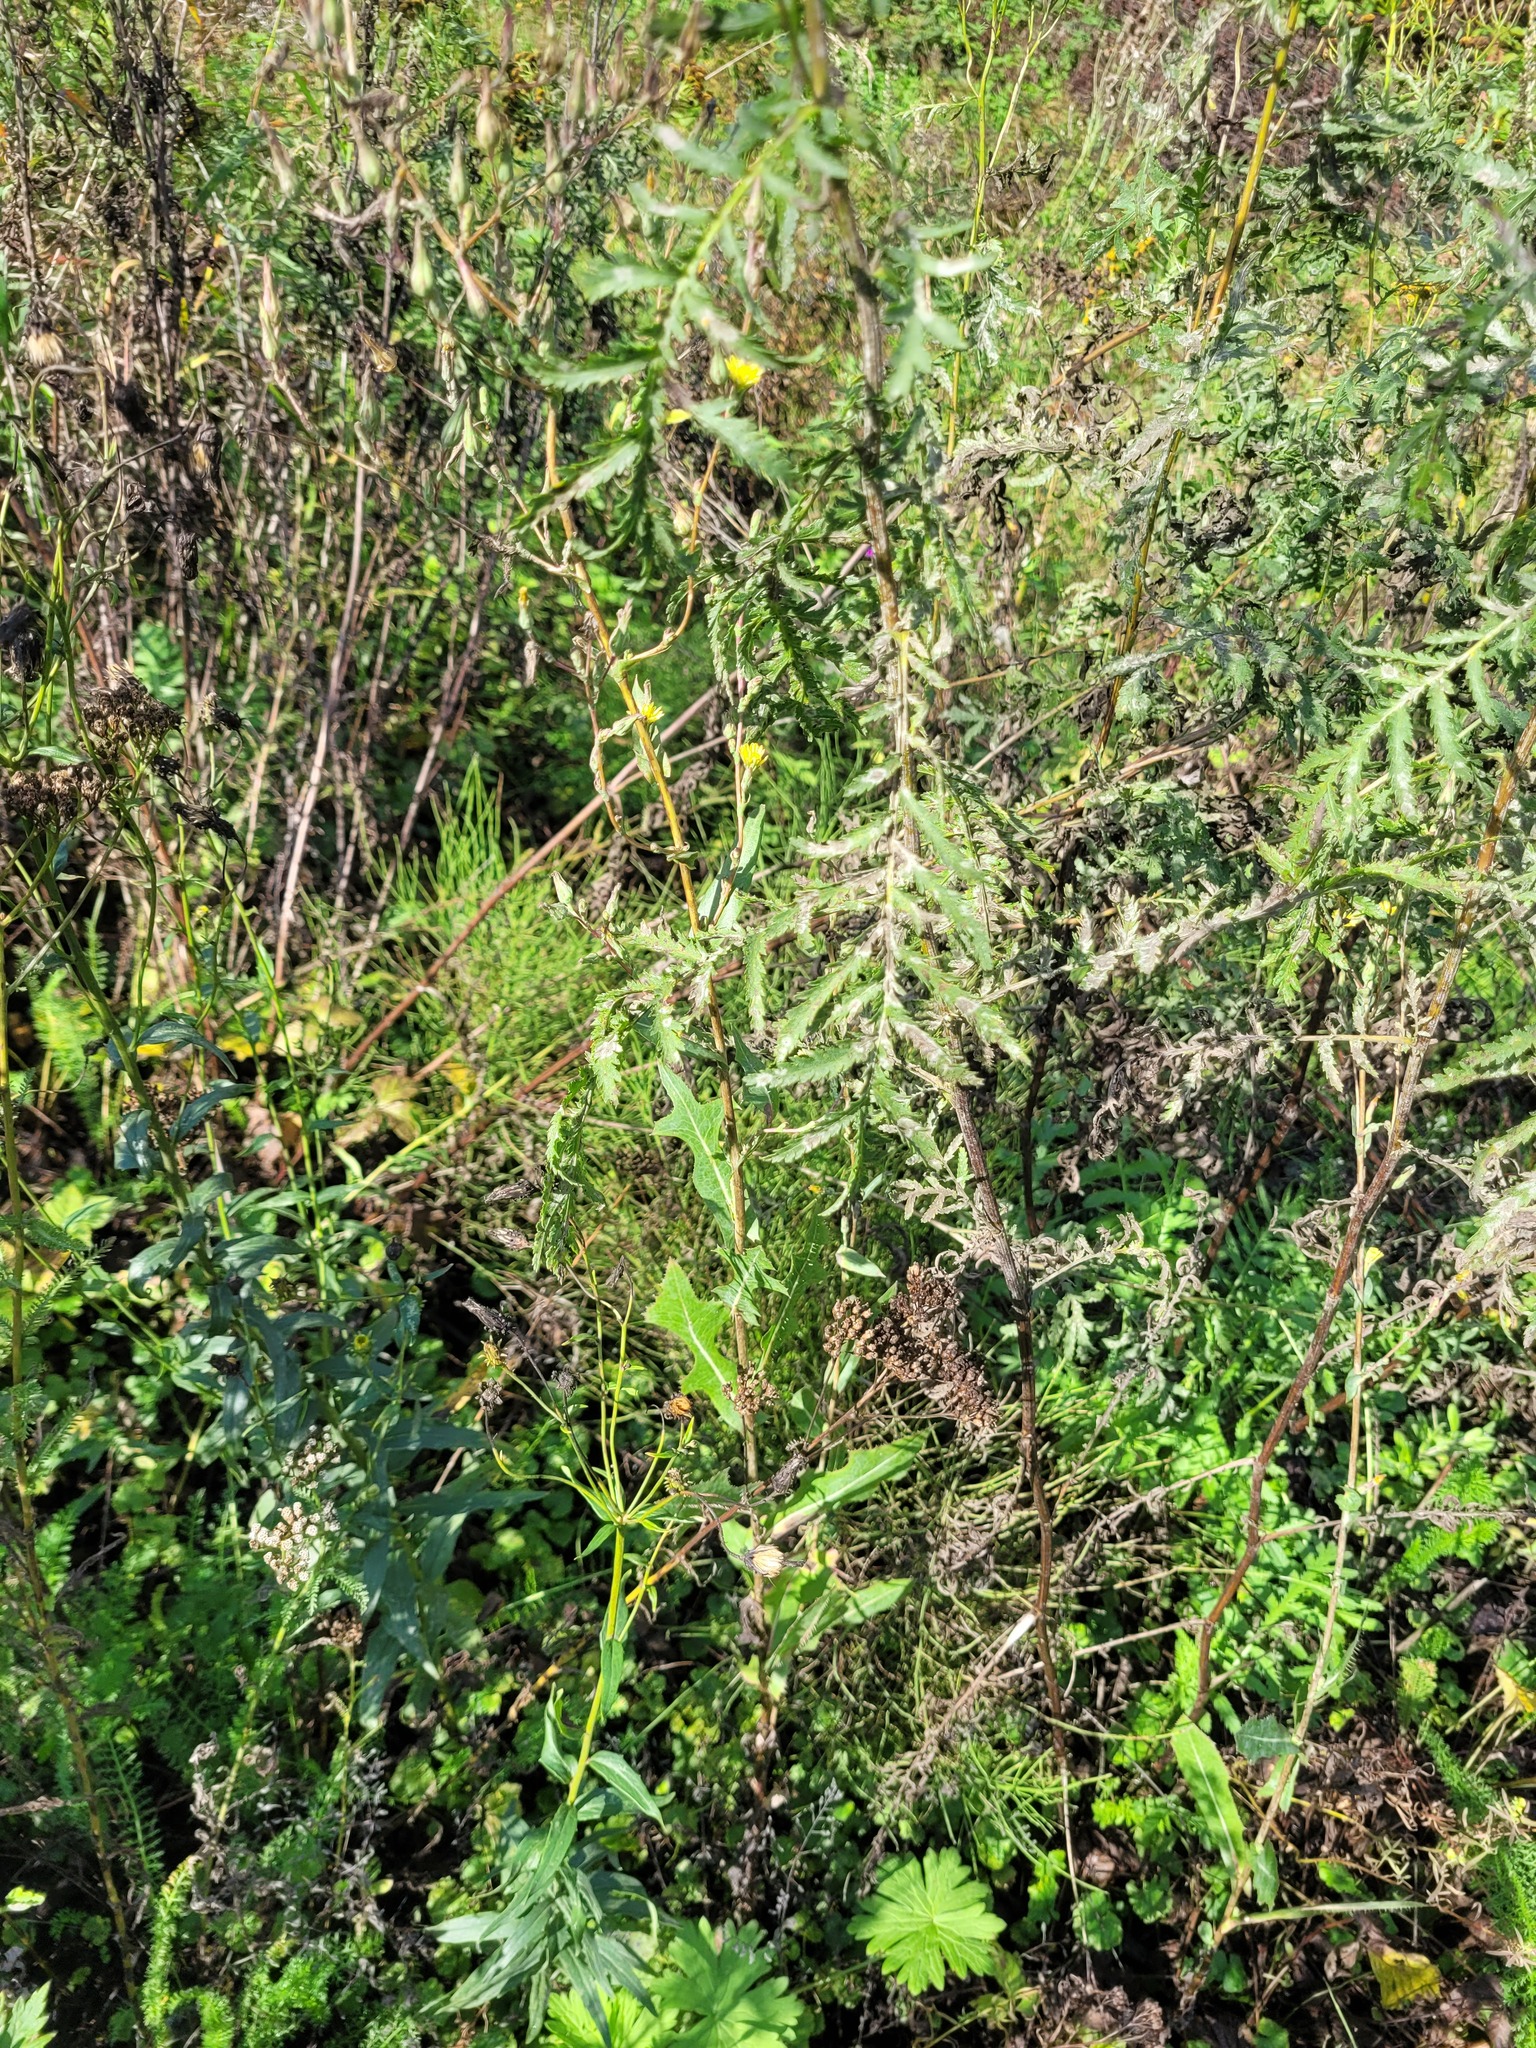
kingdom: Plantae
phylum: Tracheophyta
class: Magnoliopsida
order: Asterales
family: Asteraceae
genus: Lactuca
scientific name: Lactuca serriola
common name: Prickly lettuce
